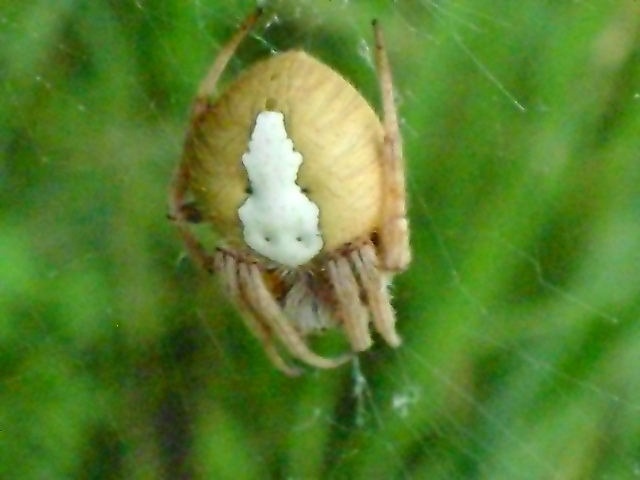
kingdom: Animalia
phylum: Arthropoda
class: Arachnida
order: Araneae
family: Araneidae
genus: Eriophora
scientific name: Eriophora ravilla
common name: Orb weavers
